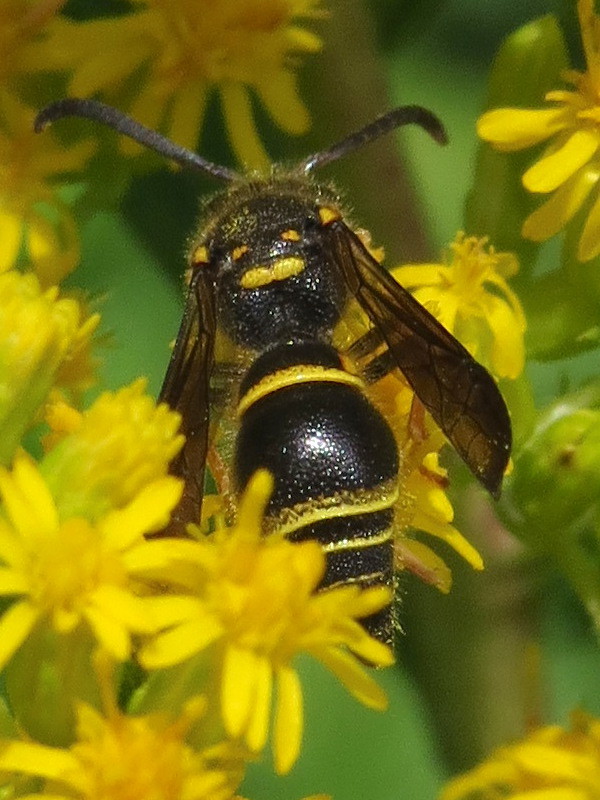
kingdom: Animalia
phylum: Arthropoda
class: Insecta
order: Hymenoptera
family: Vespidae
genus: Ancistrocerus
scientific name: Ancistrocerus campestris
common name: Smiling mason wasp
